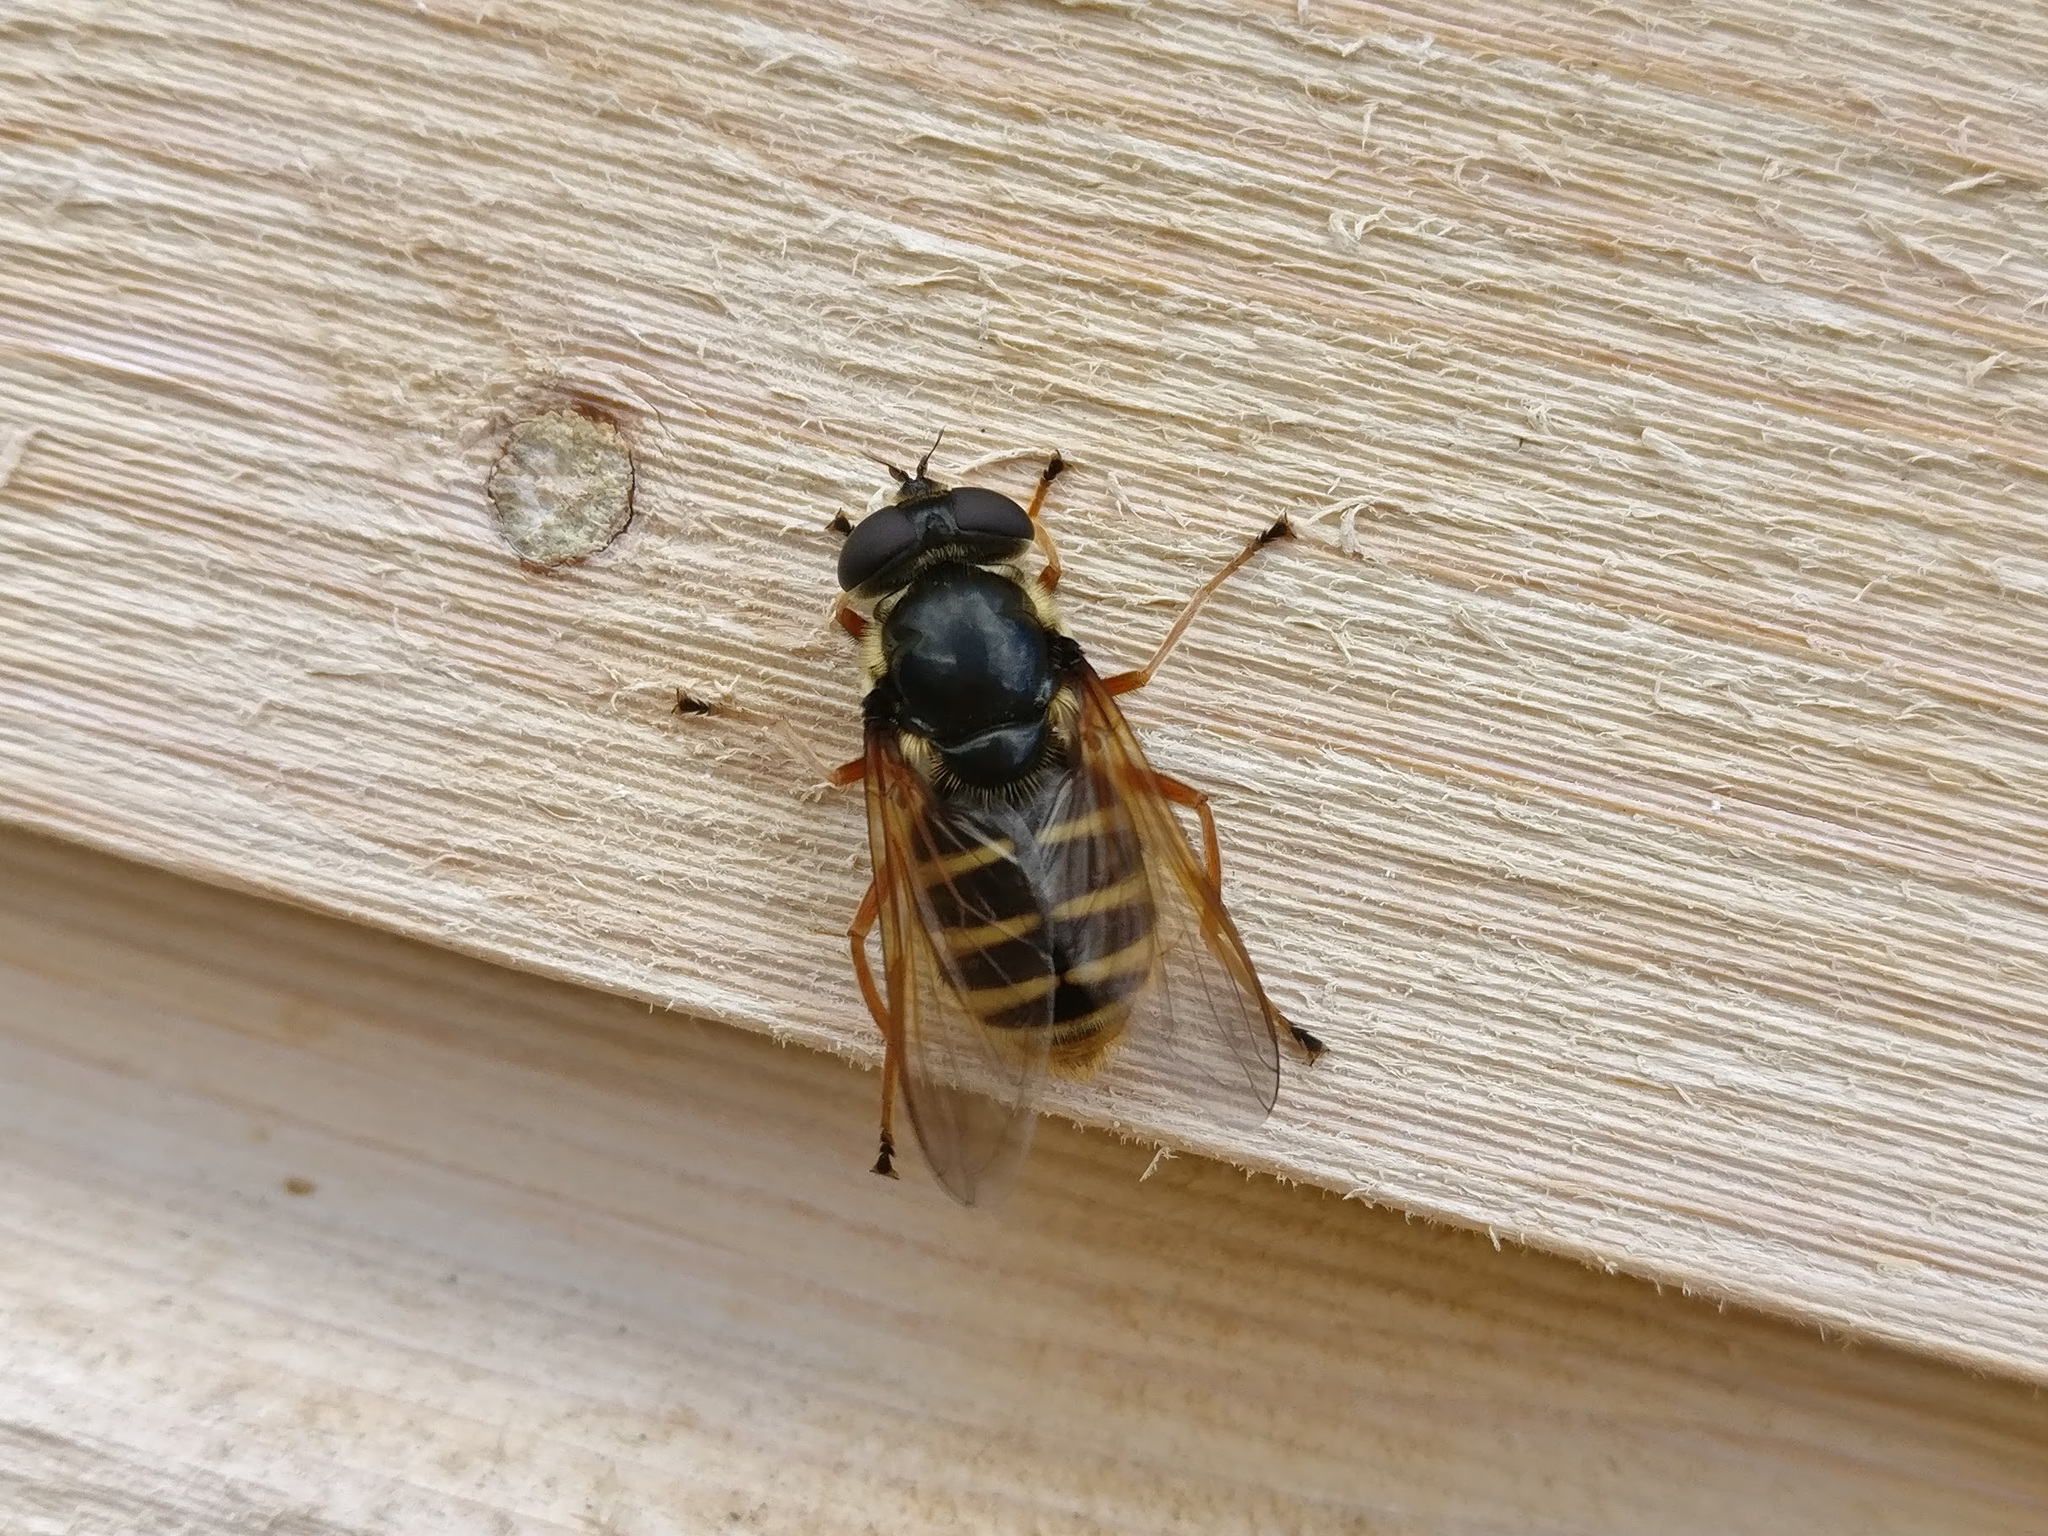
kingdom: Animalia
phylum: Arthropoda
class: Insecta
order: Diptera
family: Syrphidae
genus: Sericomyia
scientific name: Sericomyia silentis
